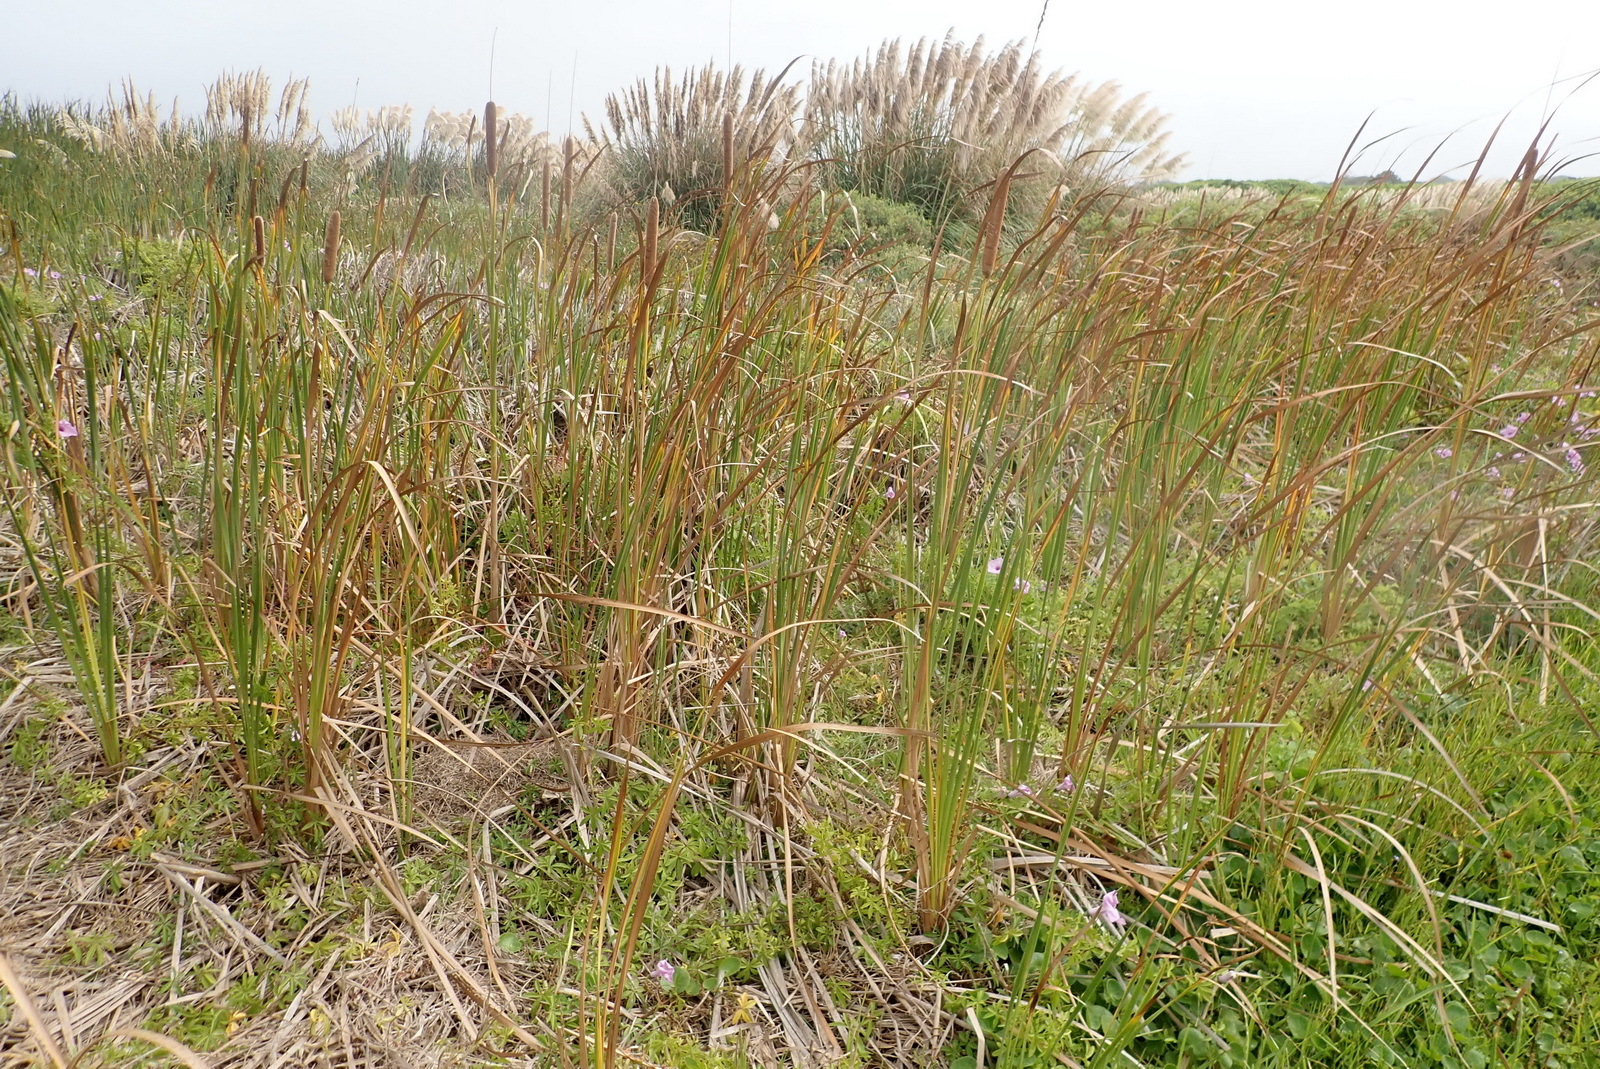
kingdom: Plantae
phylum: Tracheophyta
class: Liliopsida
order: Poales
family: Typhaceae
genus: Typha
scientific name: Typha capensis
